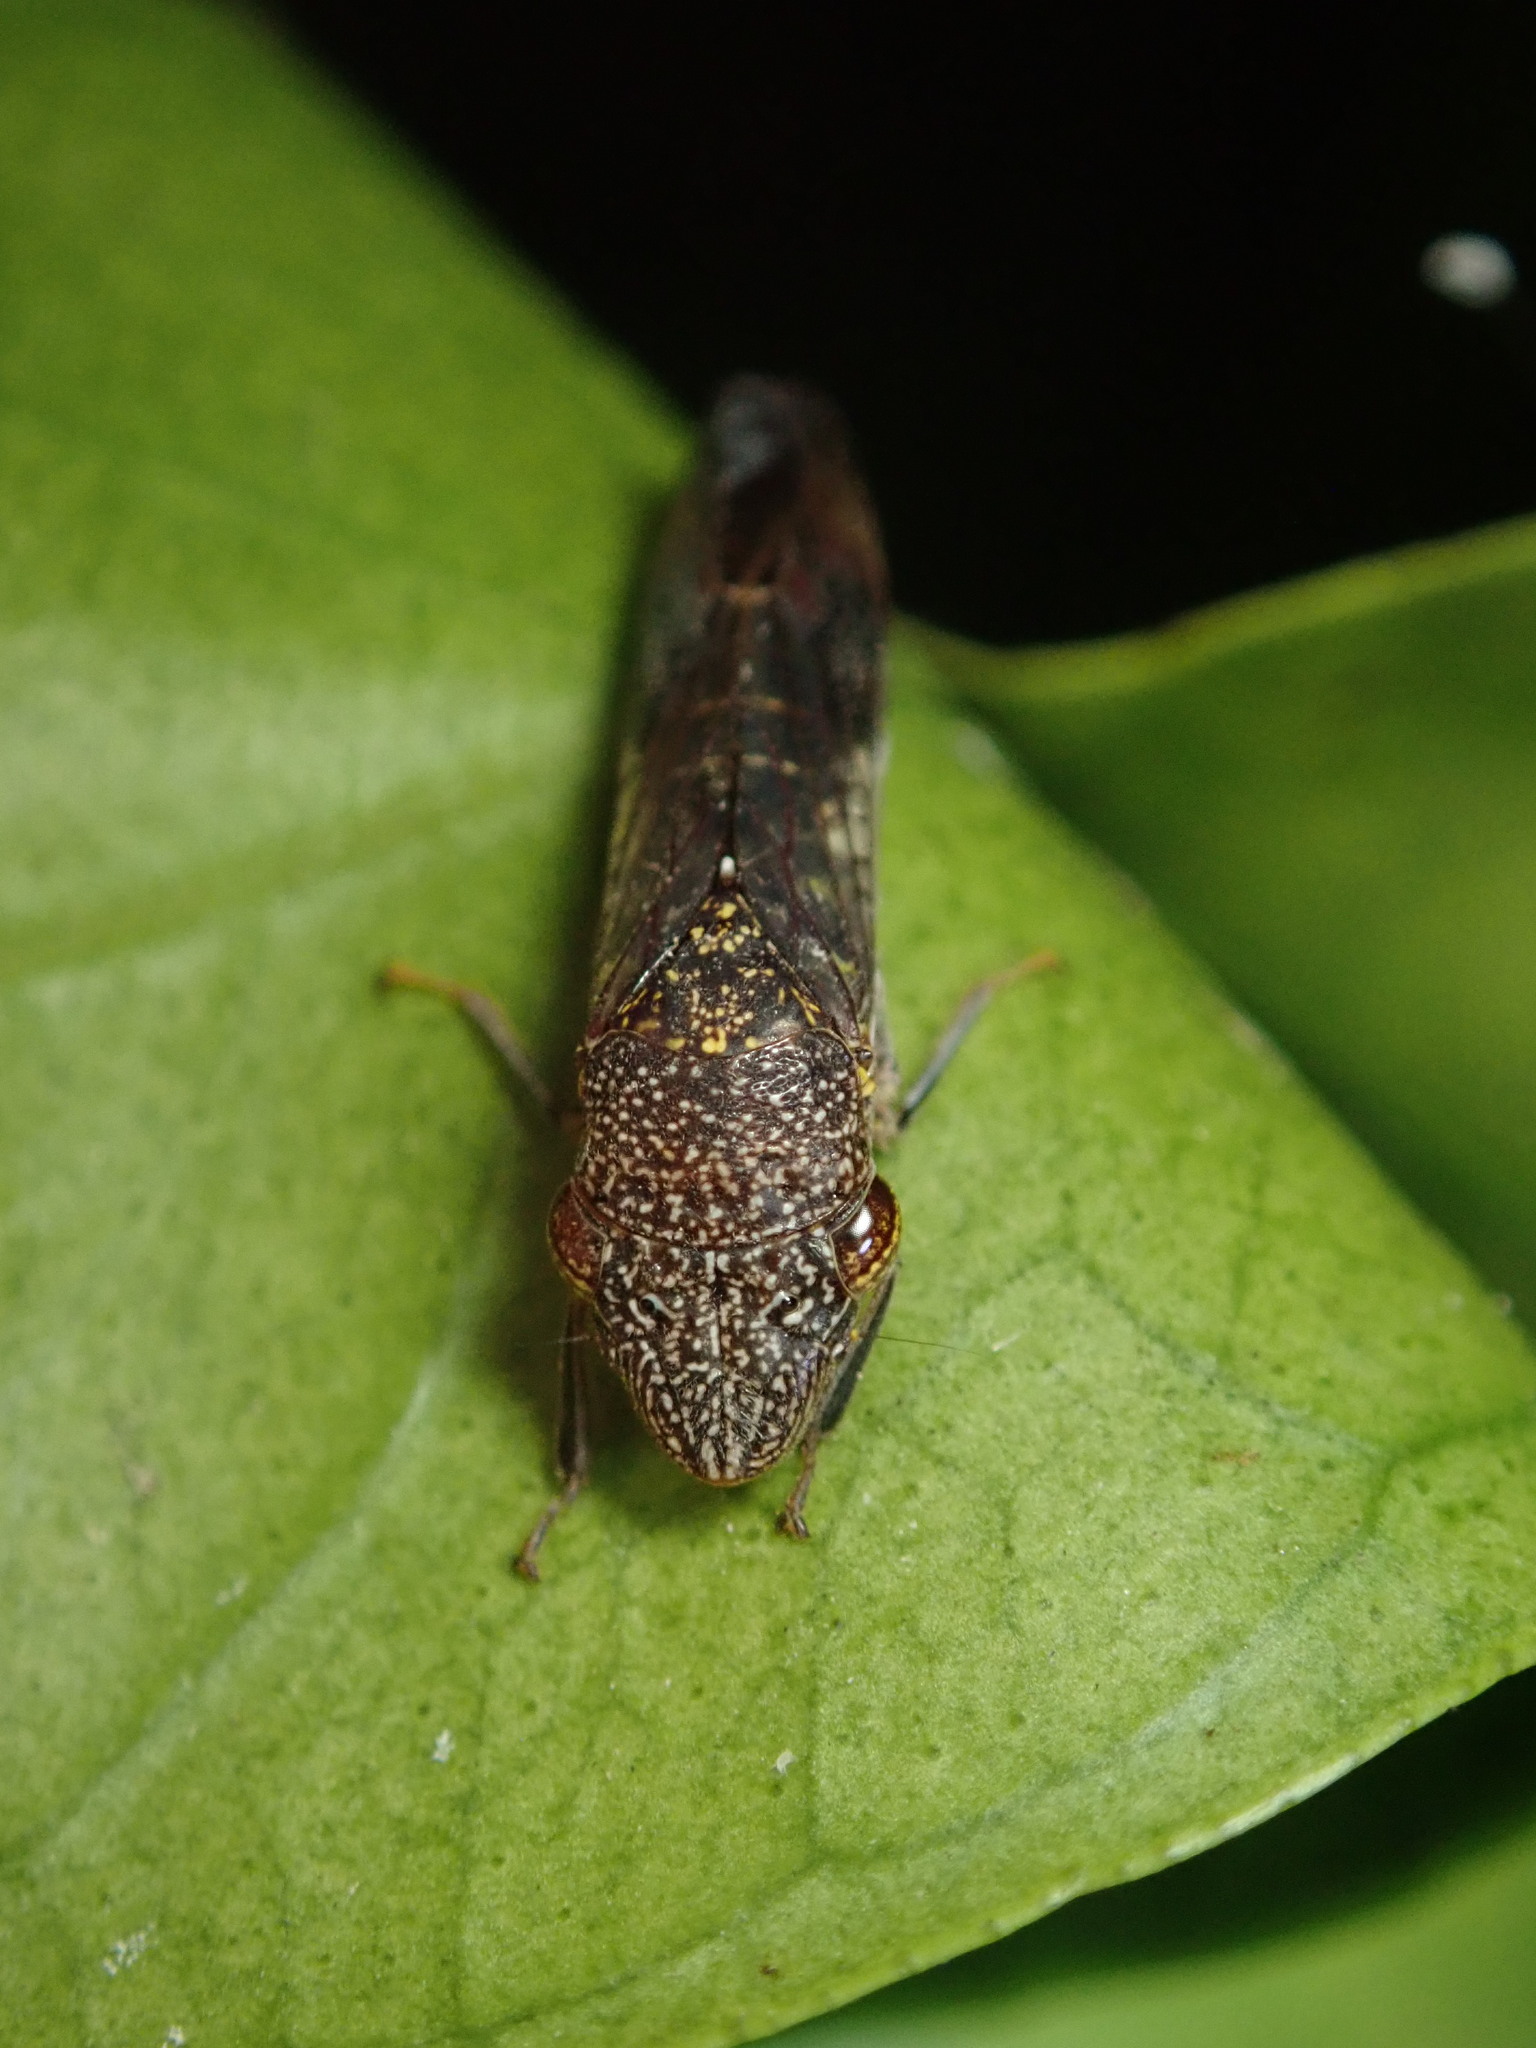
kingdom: Animalia
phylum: Arthropoda
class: Insecta
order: Hemiptera
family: Cicadellidae
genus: Homalodisca
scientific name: Homalodisca vitripennis
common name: Glassy-winged sharpshooter
